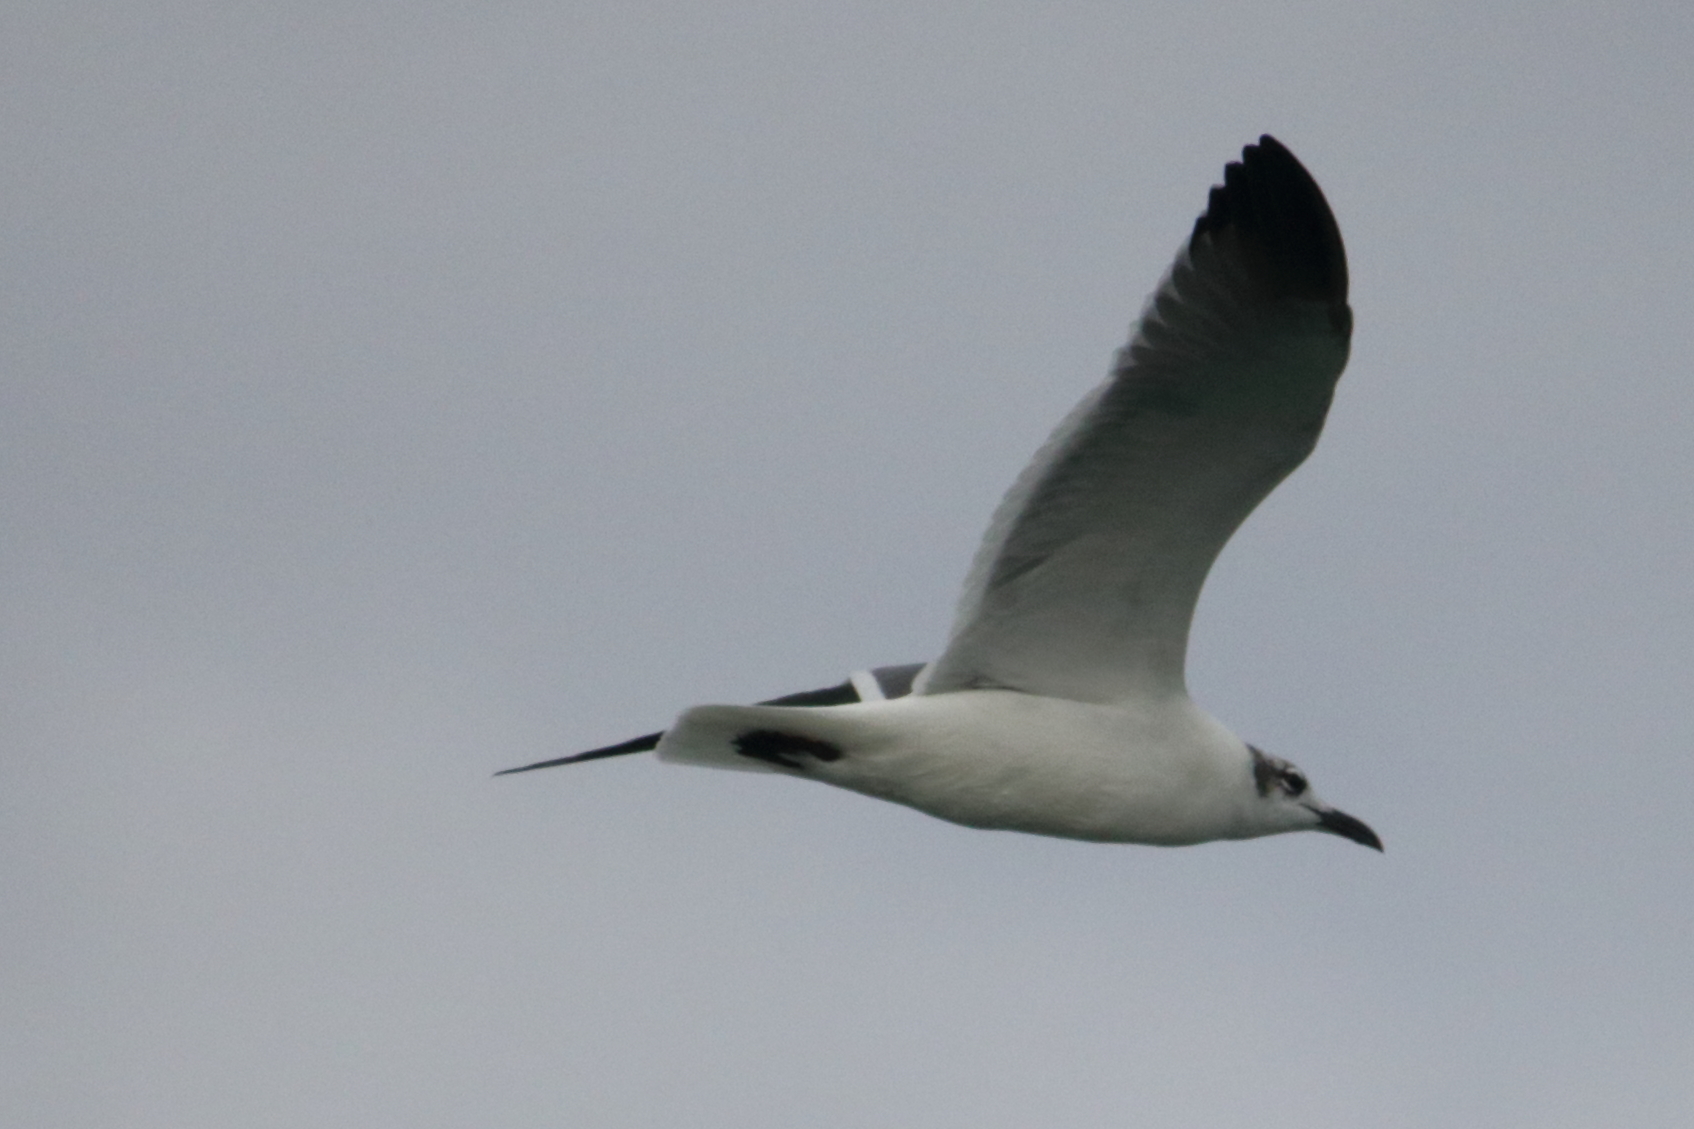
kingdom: Animalia
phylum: Chordata
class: Aves
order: Charadriiformes
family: Laridae
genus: Leucophaeus
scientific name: Leucophaeus atricilla
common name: Laughing gull
